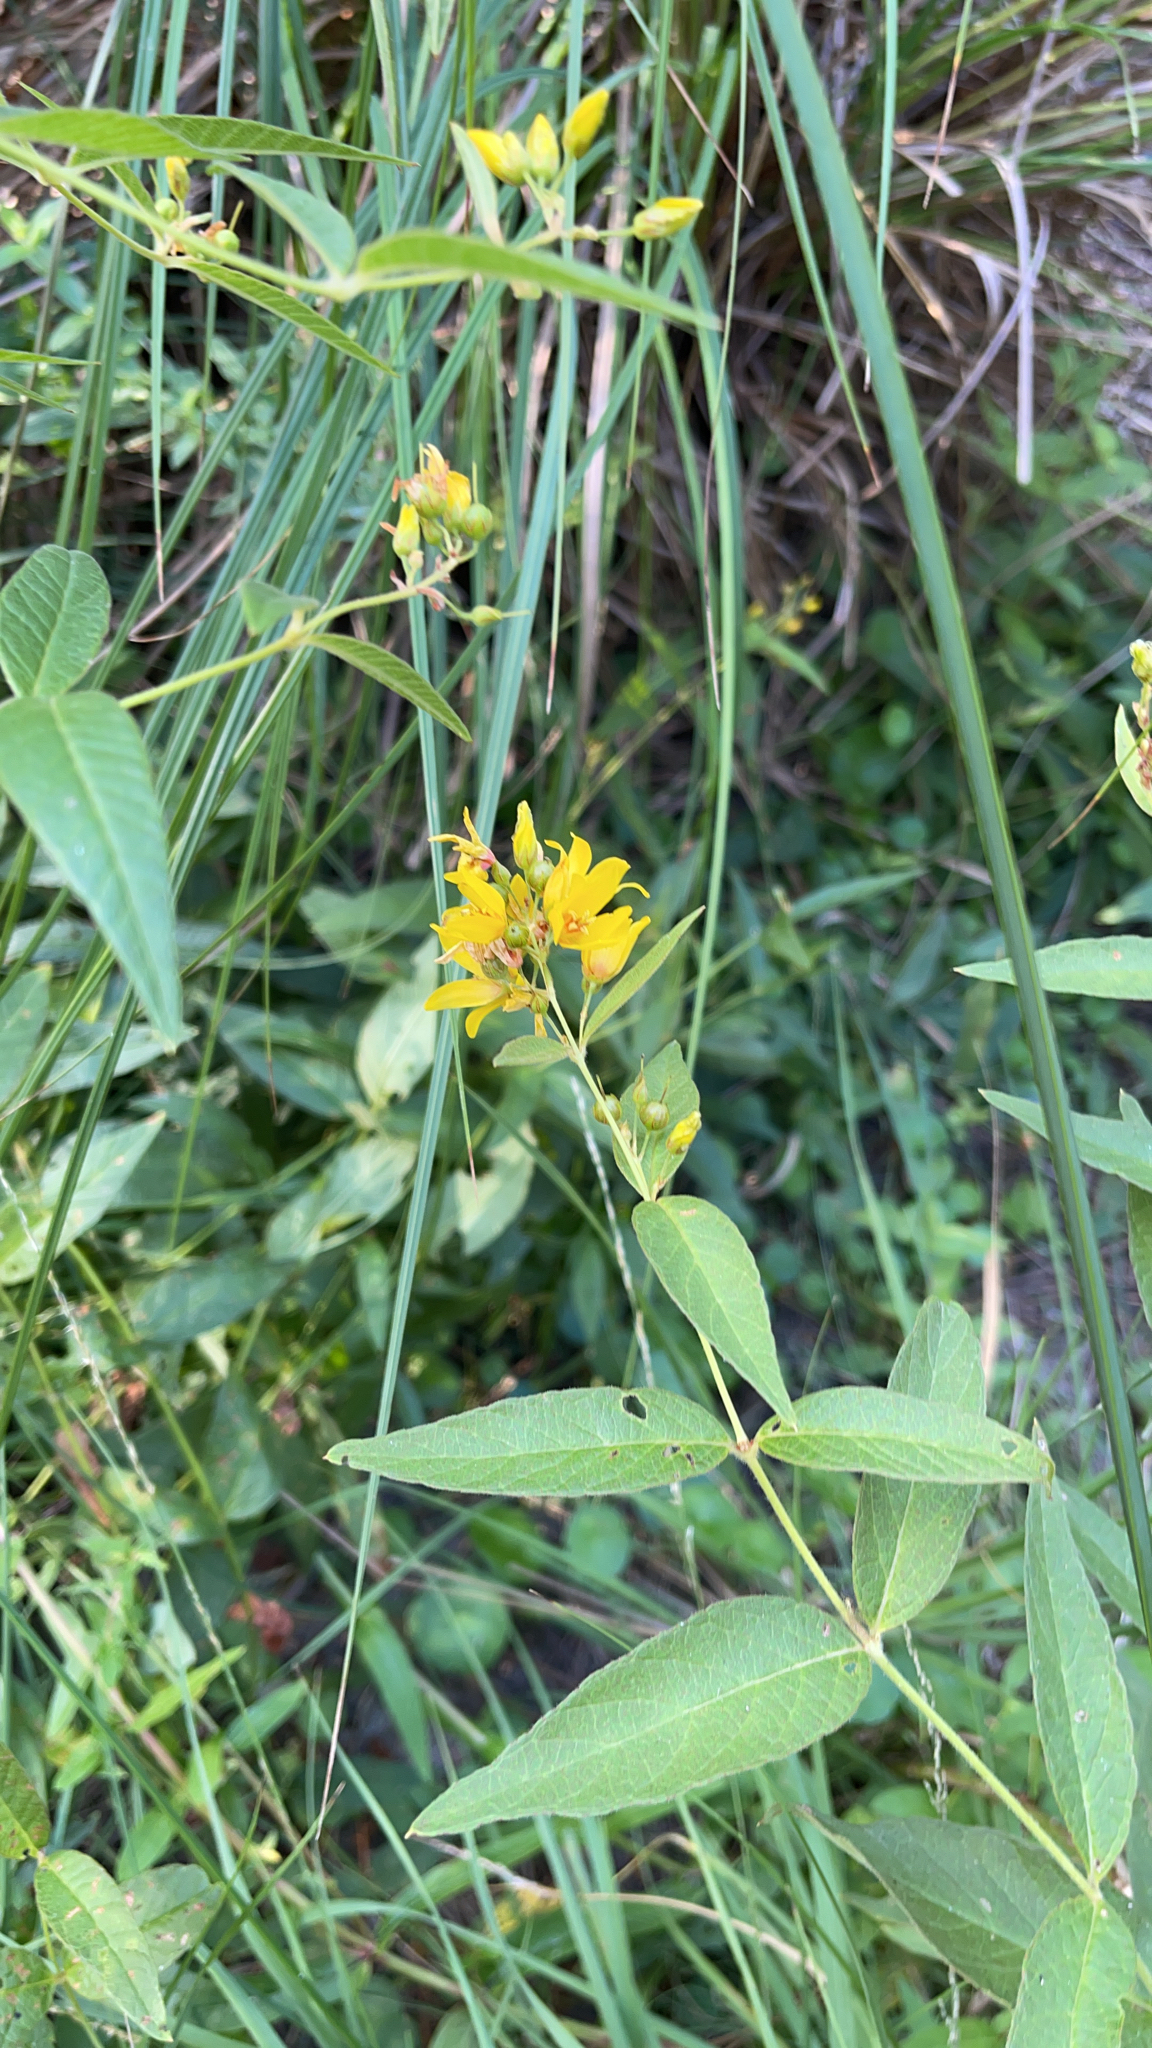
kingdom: Plantae
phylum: Tracheophyta
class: Magnoliopsida
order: Ericales
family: Primulaceae
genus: Lysimachia
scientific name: Lysimachia vulgaris
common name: Yellow loosestrife
